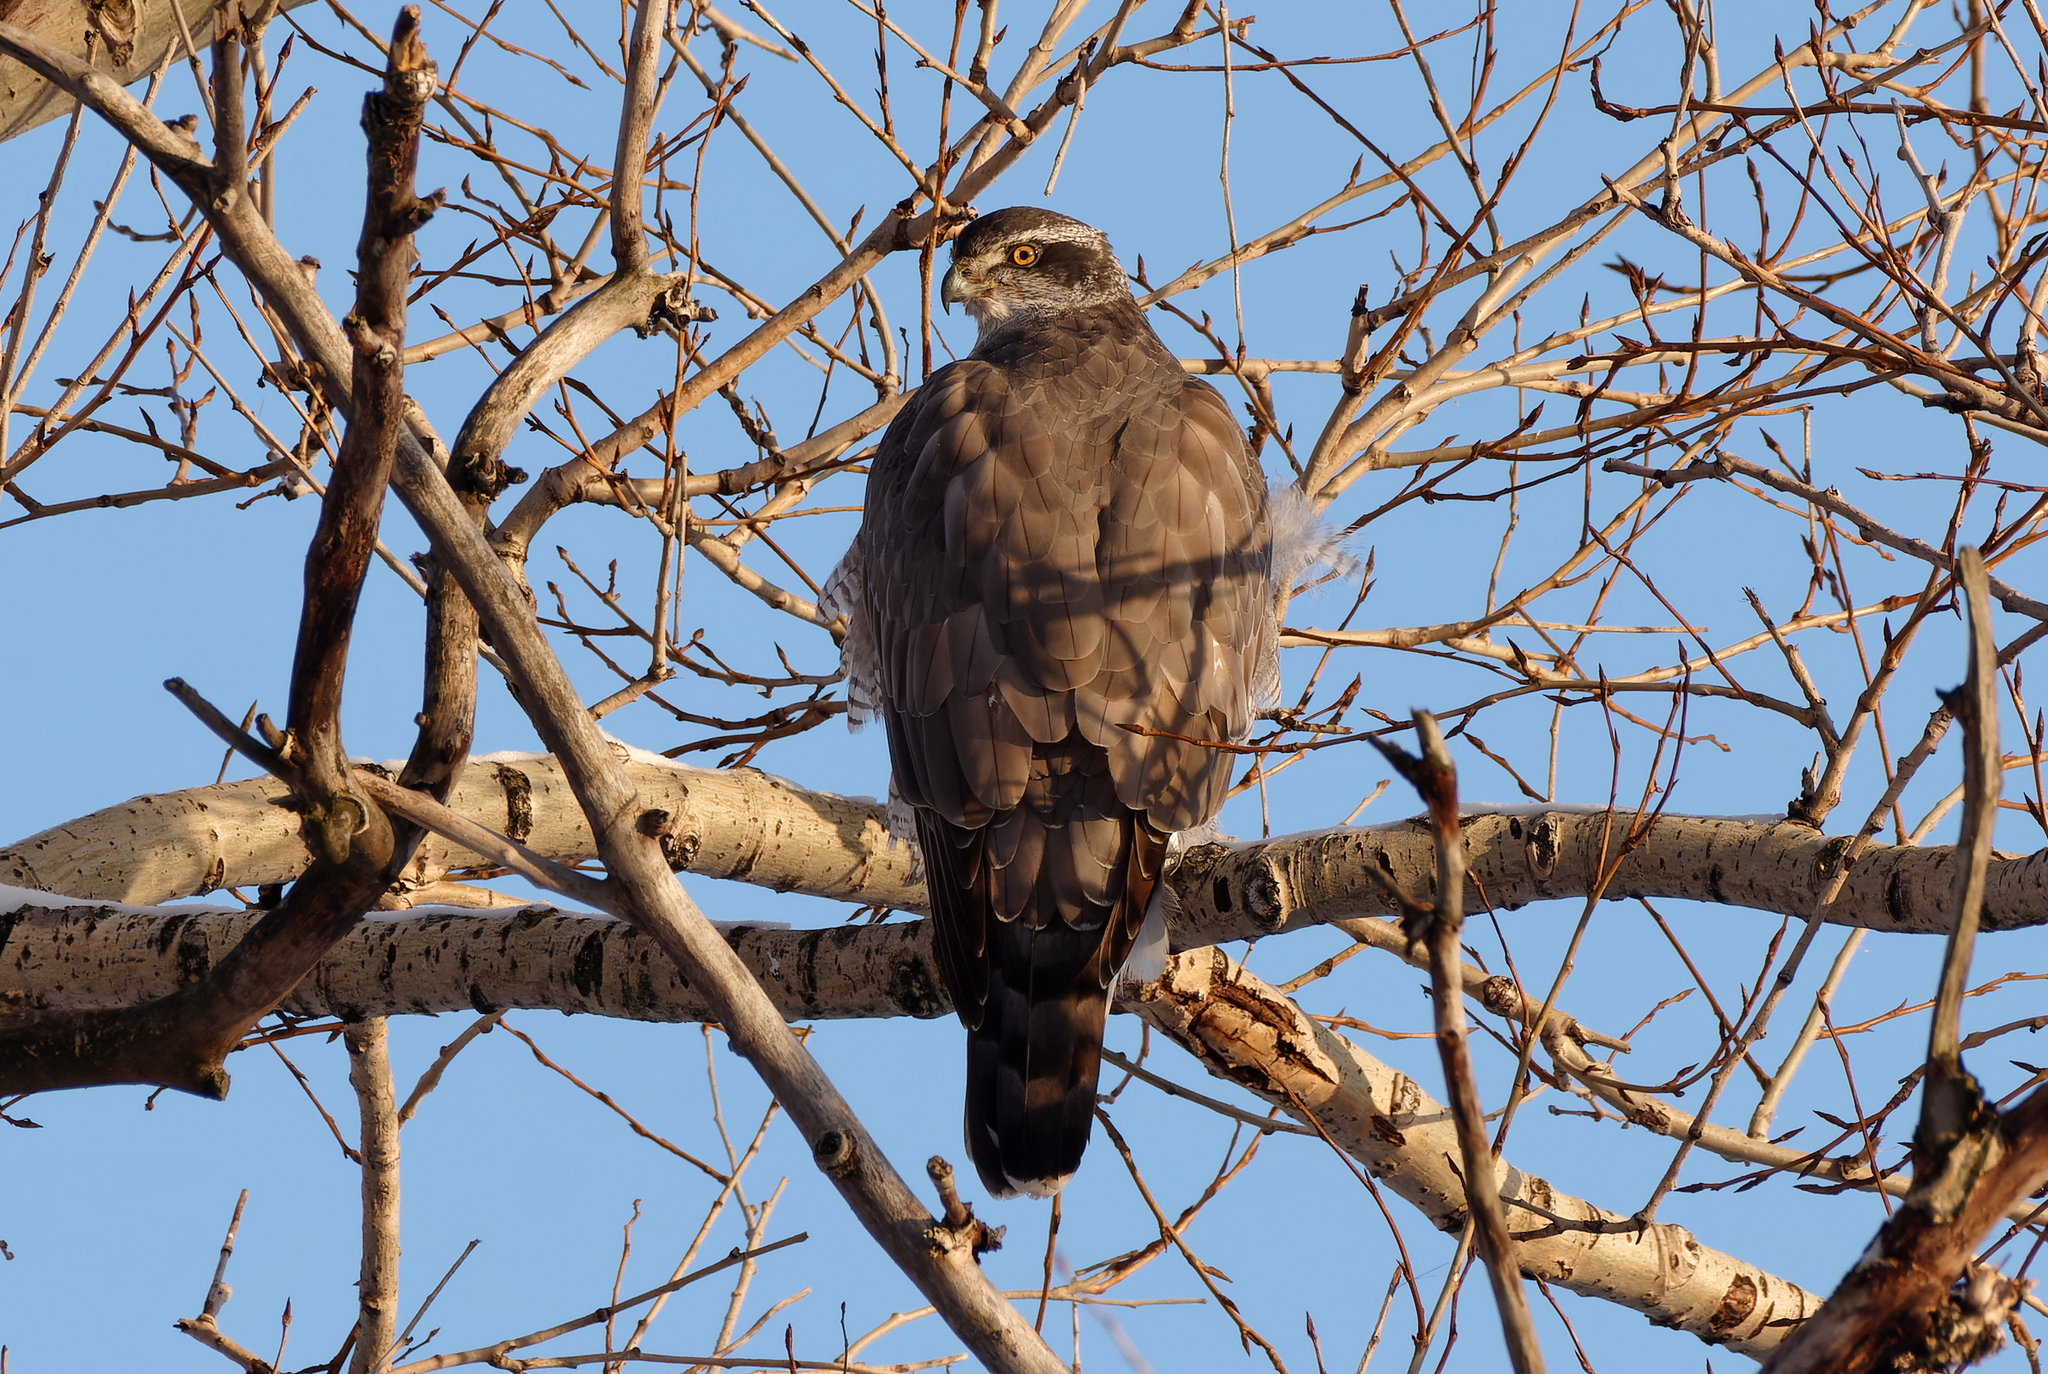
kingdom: Animalia
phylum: Chordata
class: Aves
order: Accipitriformes
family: Accipitridae
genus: Accipiter
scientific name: Accipiter gentilis
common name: Northern goshawk
